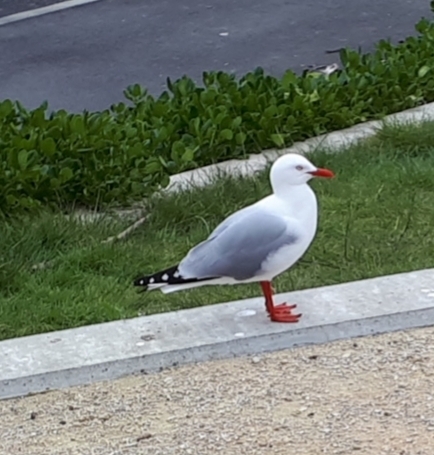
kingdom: Animalia
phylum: Chordata
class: Aves
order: Charadriiformes
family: Laridae
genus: Chroicocephalus
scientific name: Chroicocephalus novaehollandiae
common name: Silver gull
